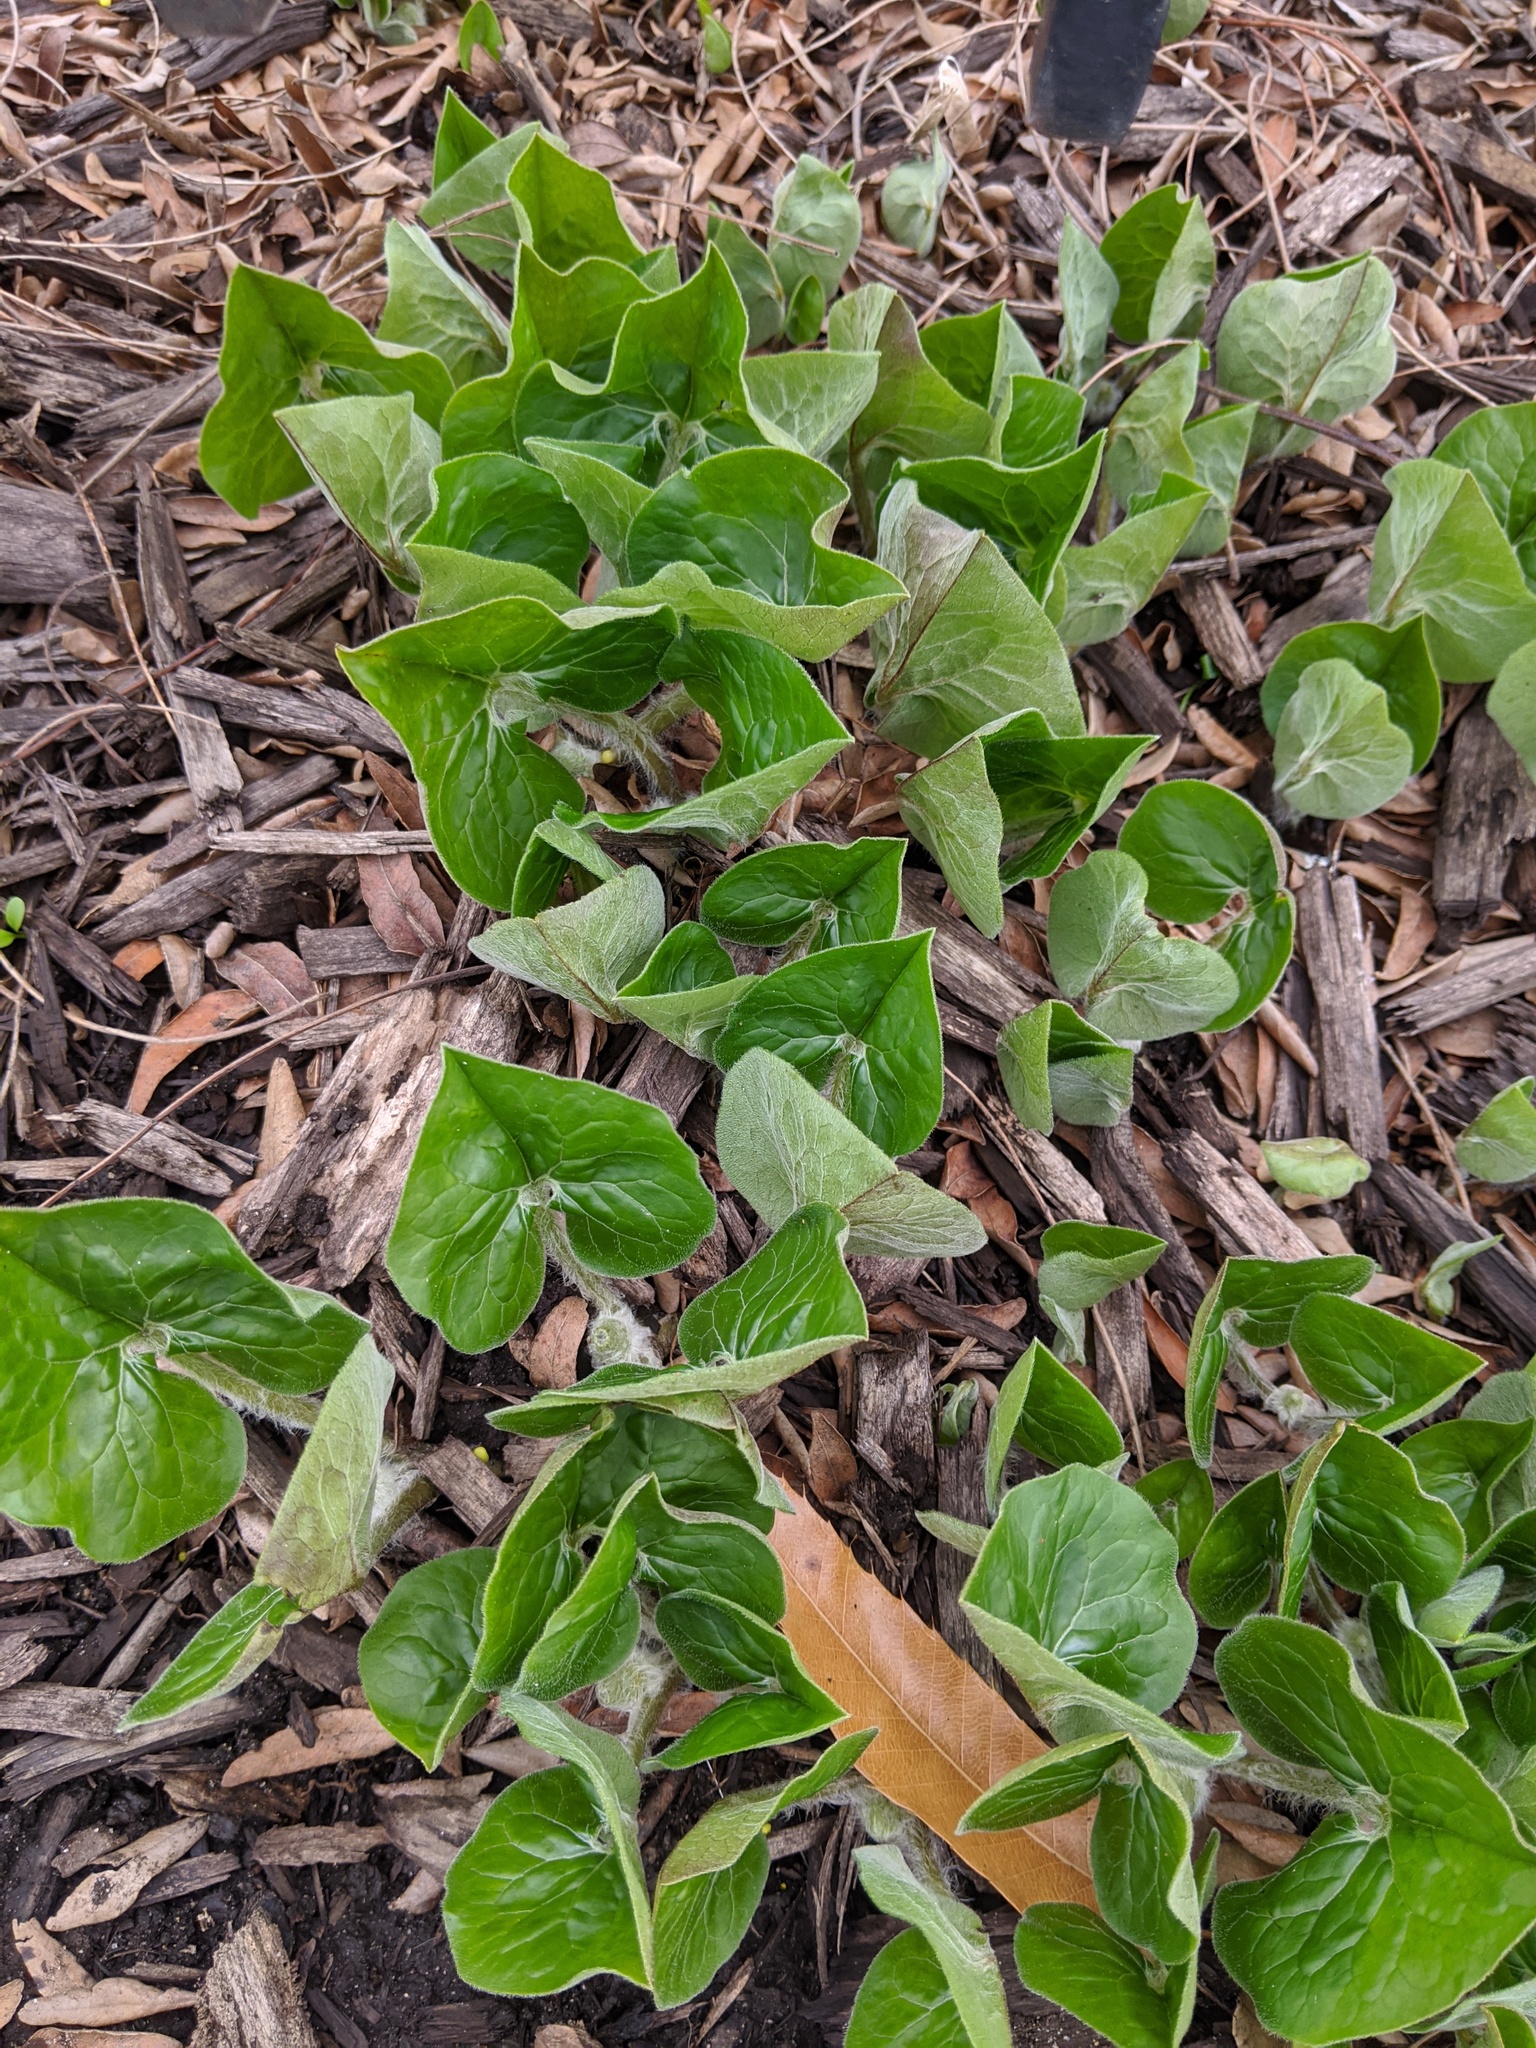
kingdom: Plantae
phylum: Tracheophyta
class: Magnoliopsida
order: Piperales
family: Aristolochiaceae
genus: Asarum
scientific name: Asarum canadense
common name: Wild ginger
